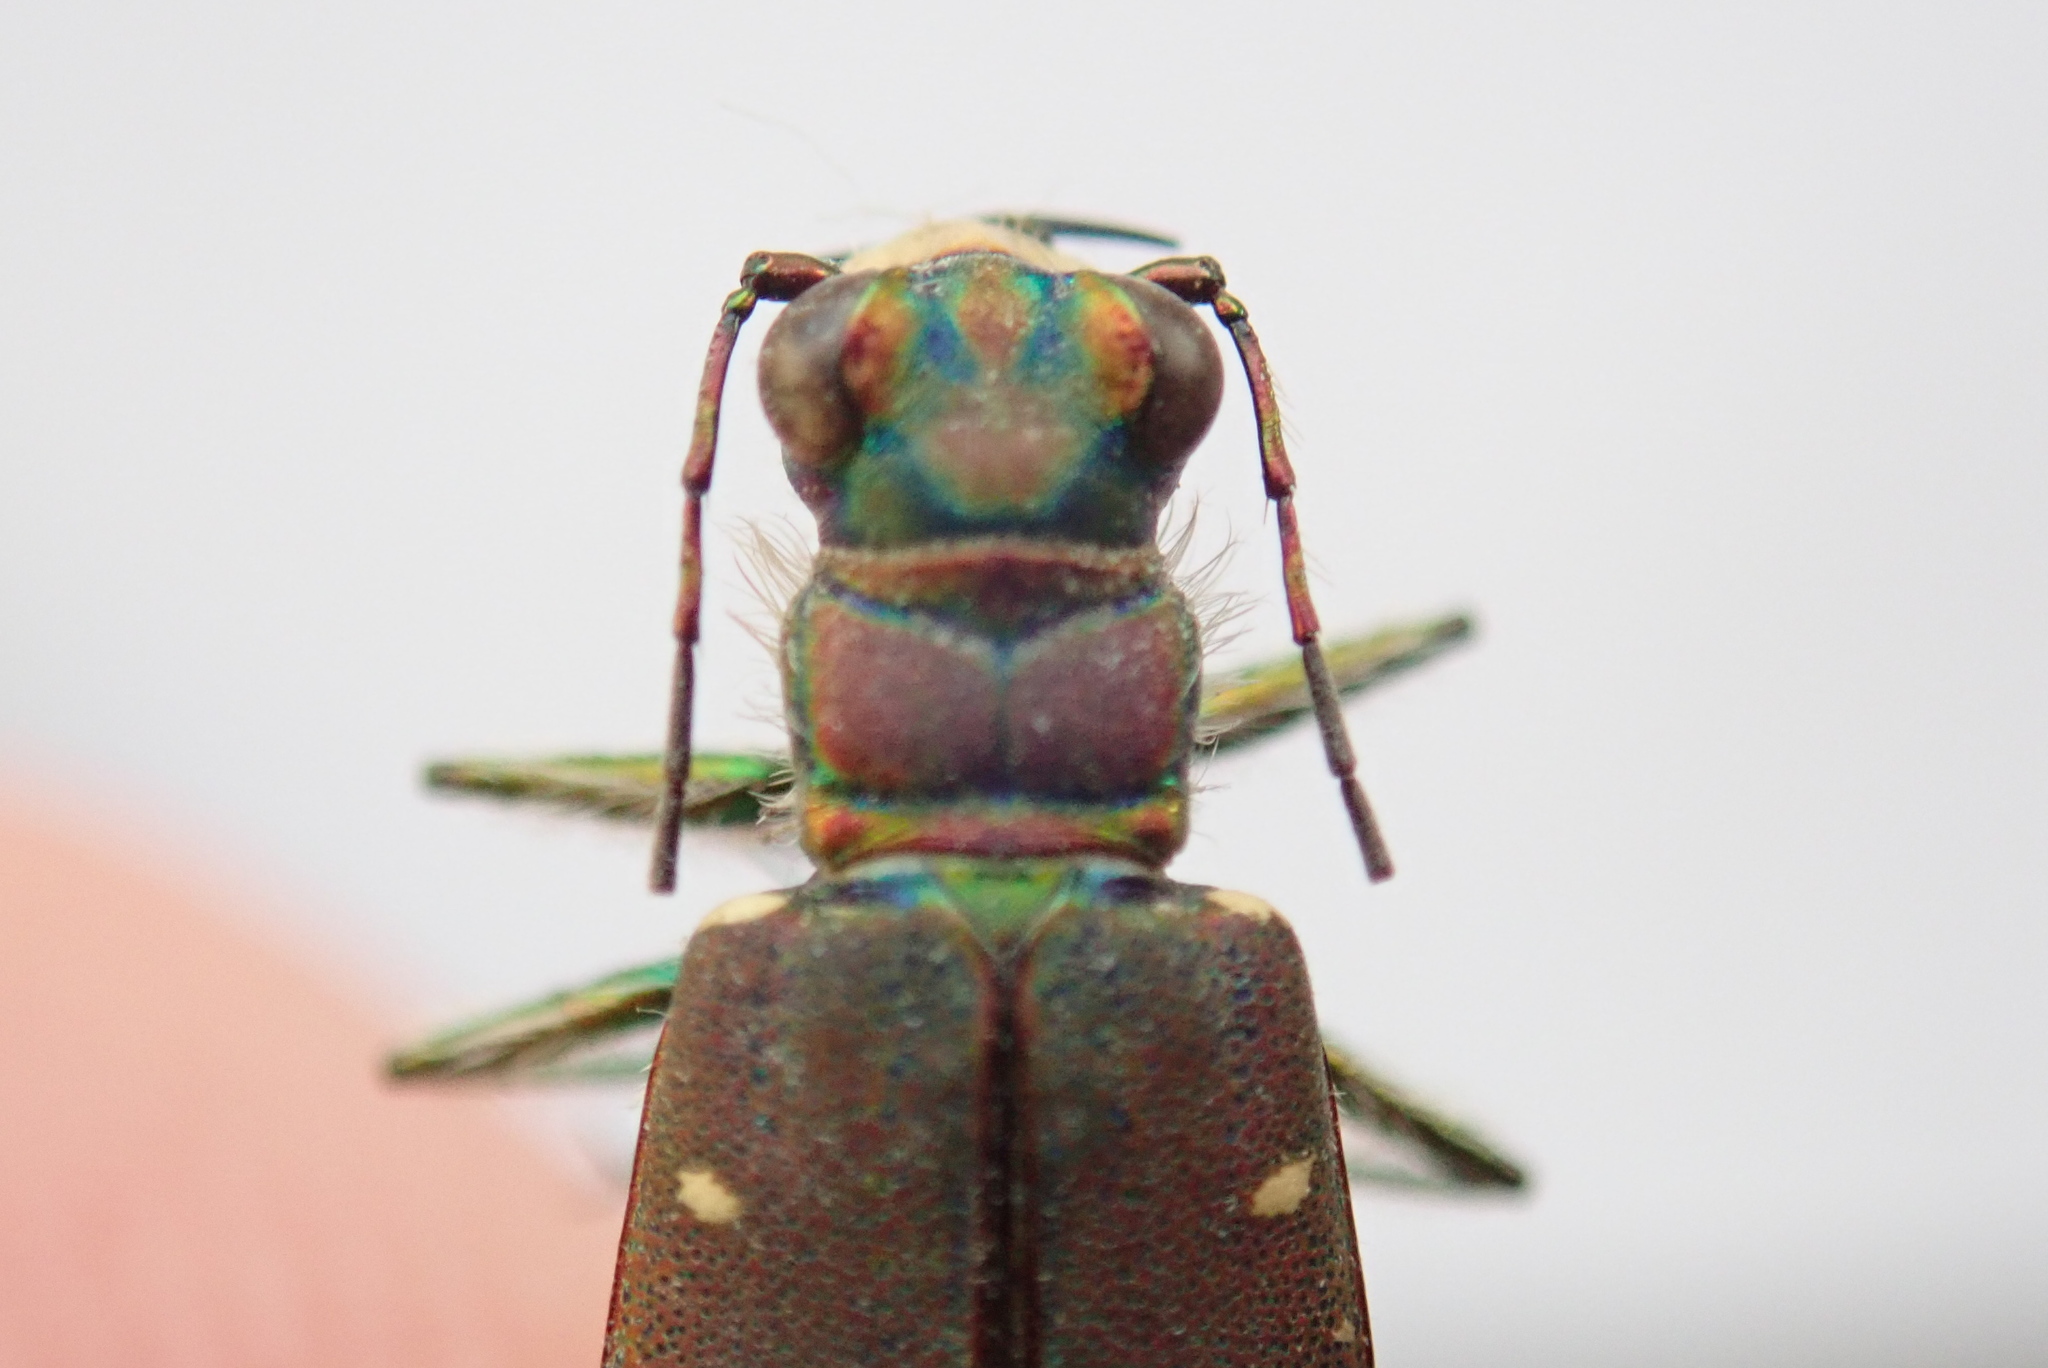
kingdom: Animalia
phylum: Arthropoda
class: Insecta
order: Coleoptera
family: Carabidae
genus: Cicindela
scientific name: Cicindela depressula
